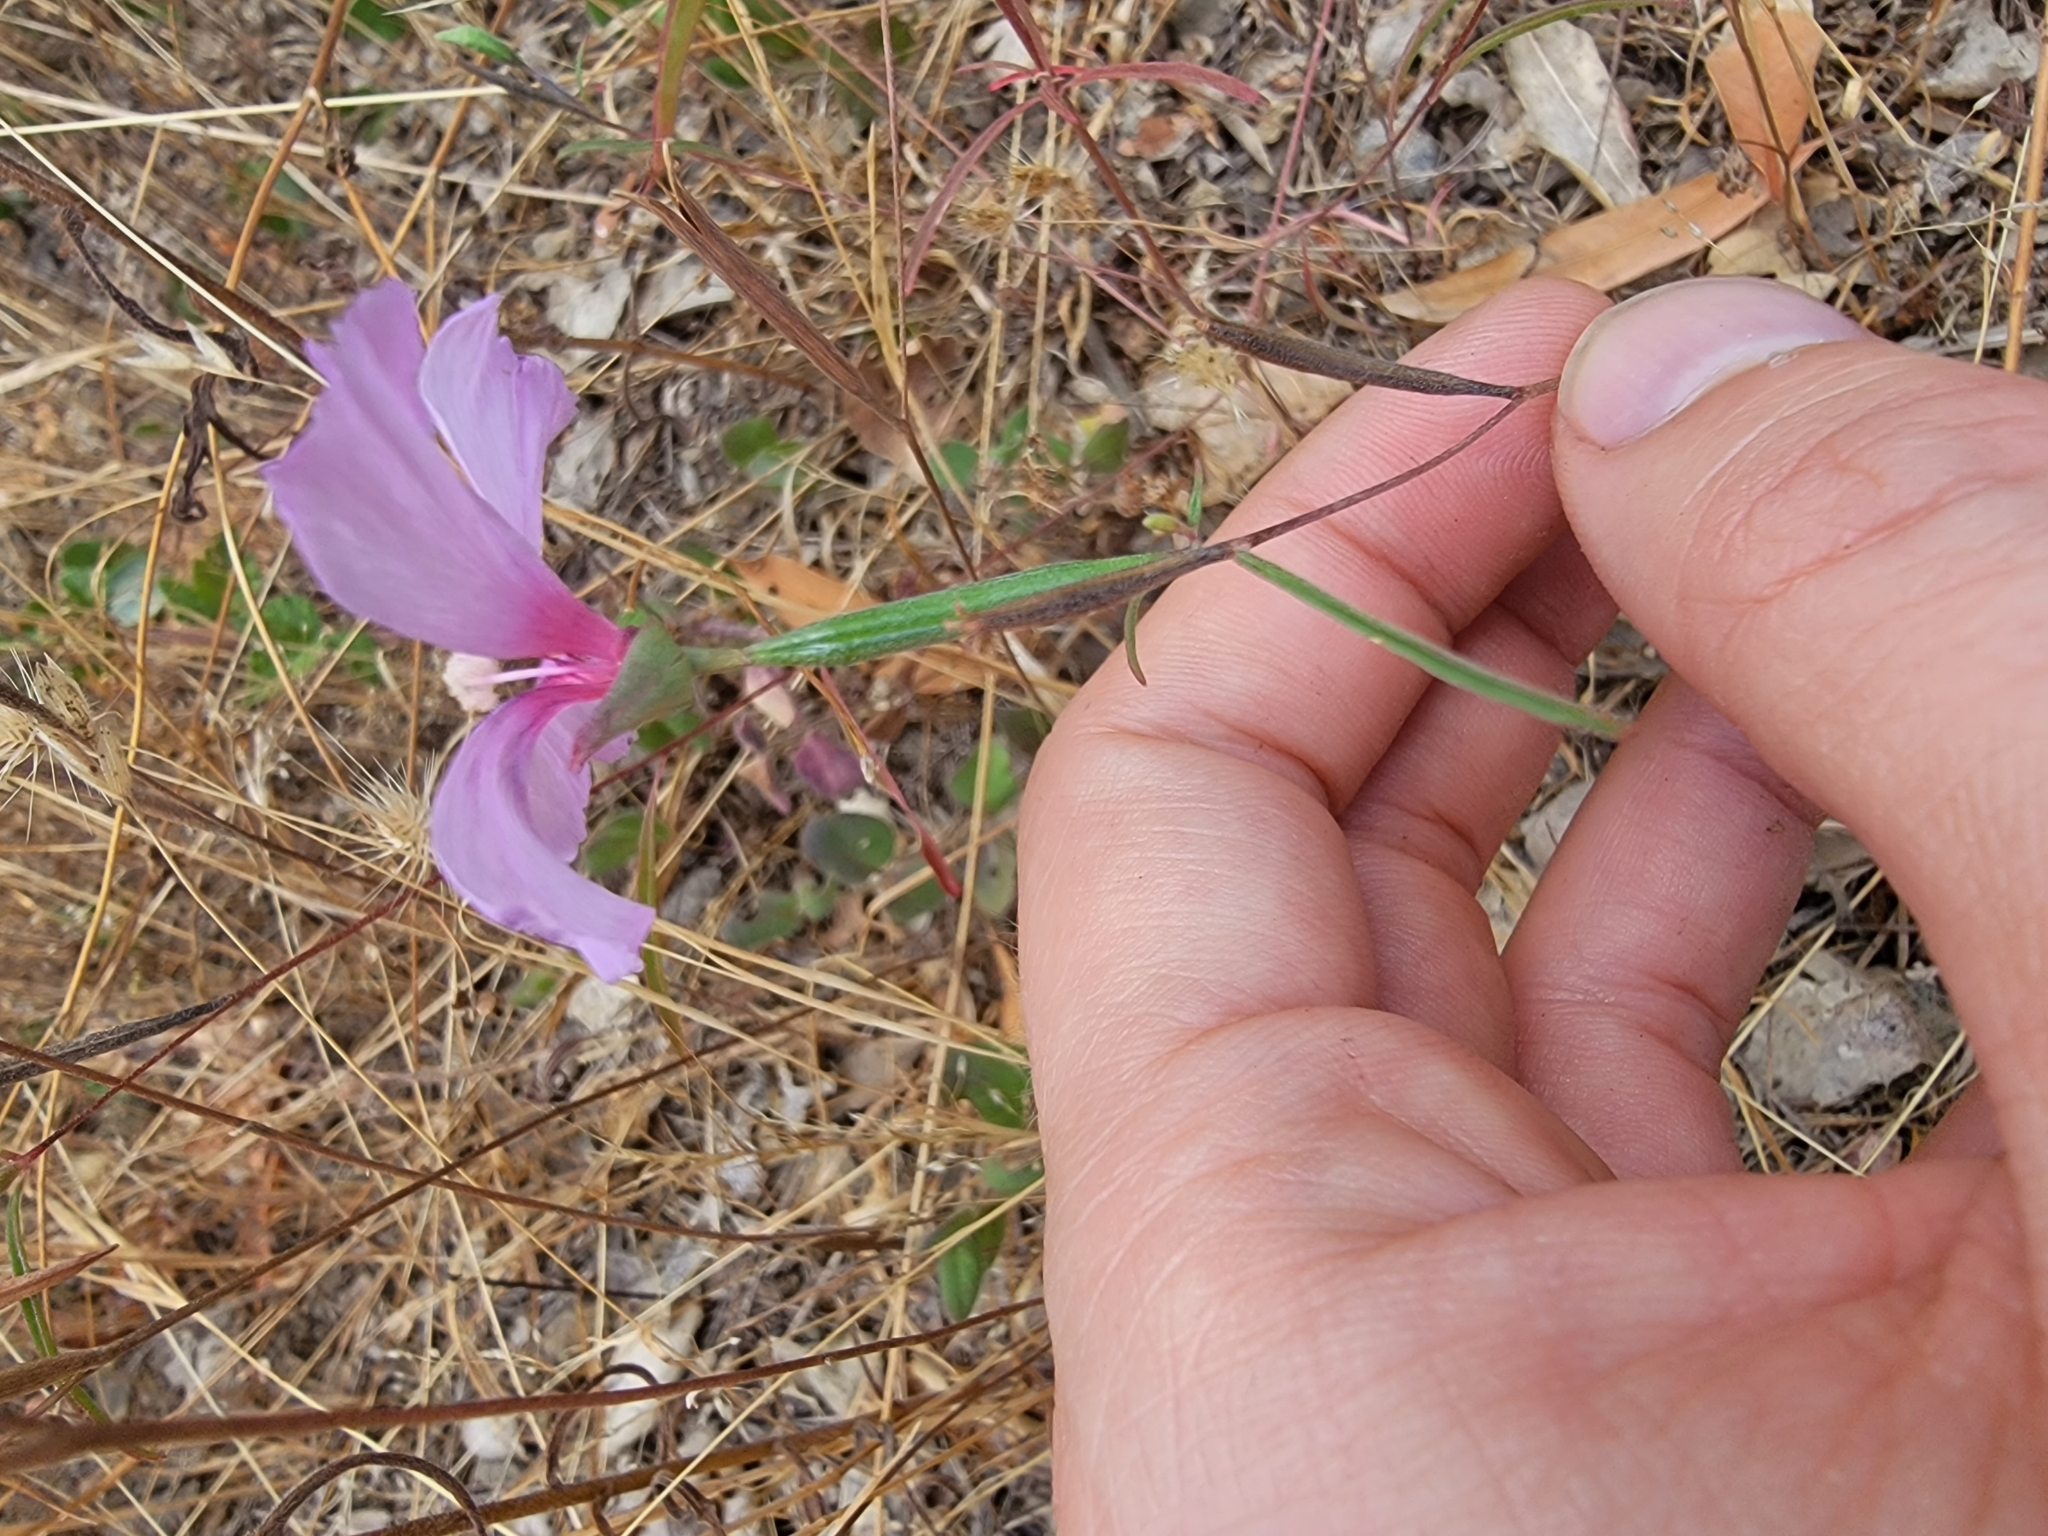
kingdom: Plantae
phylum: Tracheophyta
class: Magnoliopsida
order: Myrtales
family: Onagraceae
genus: Clarkia
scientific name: Clarkia rubicunda
